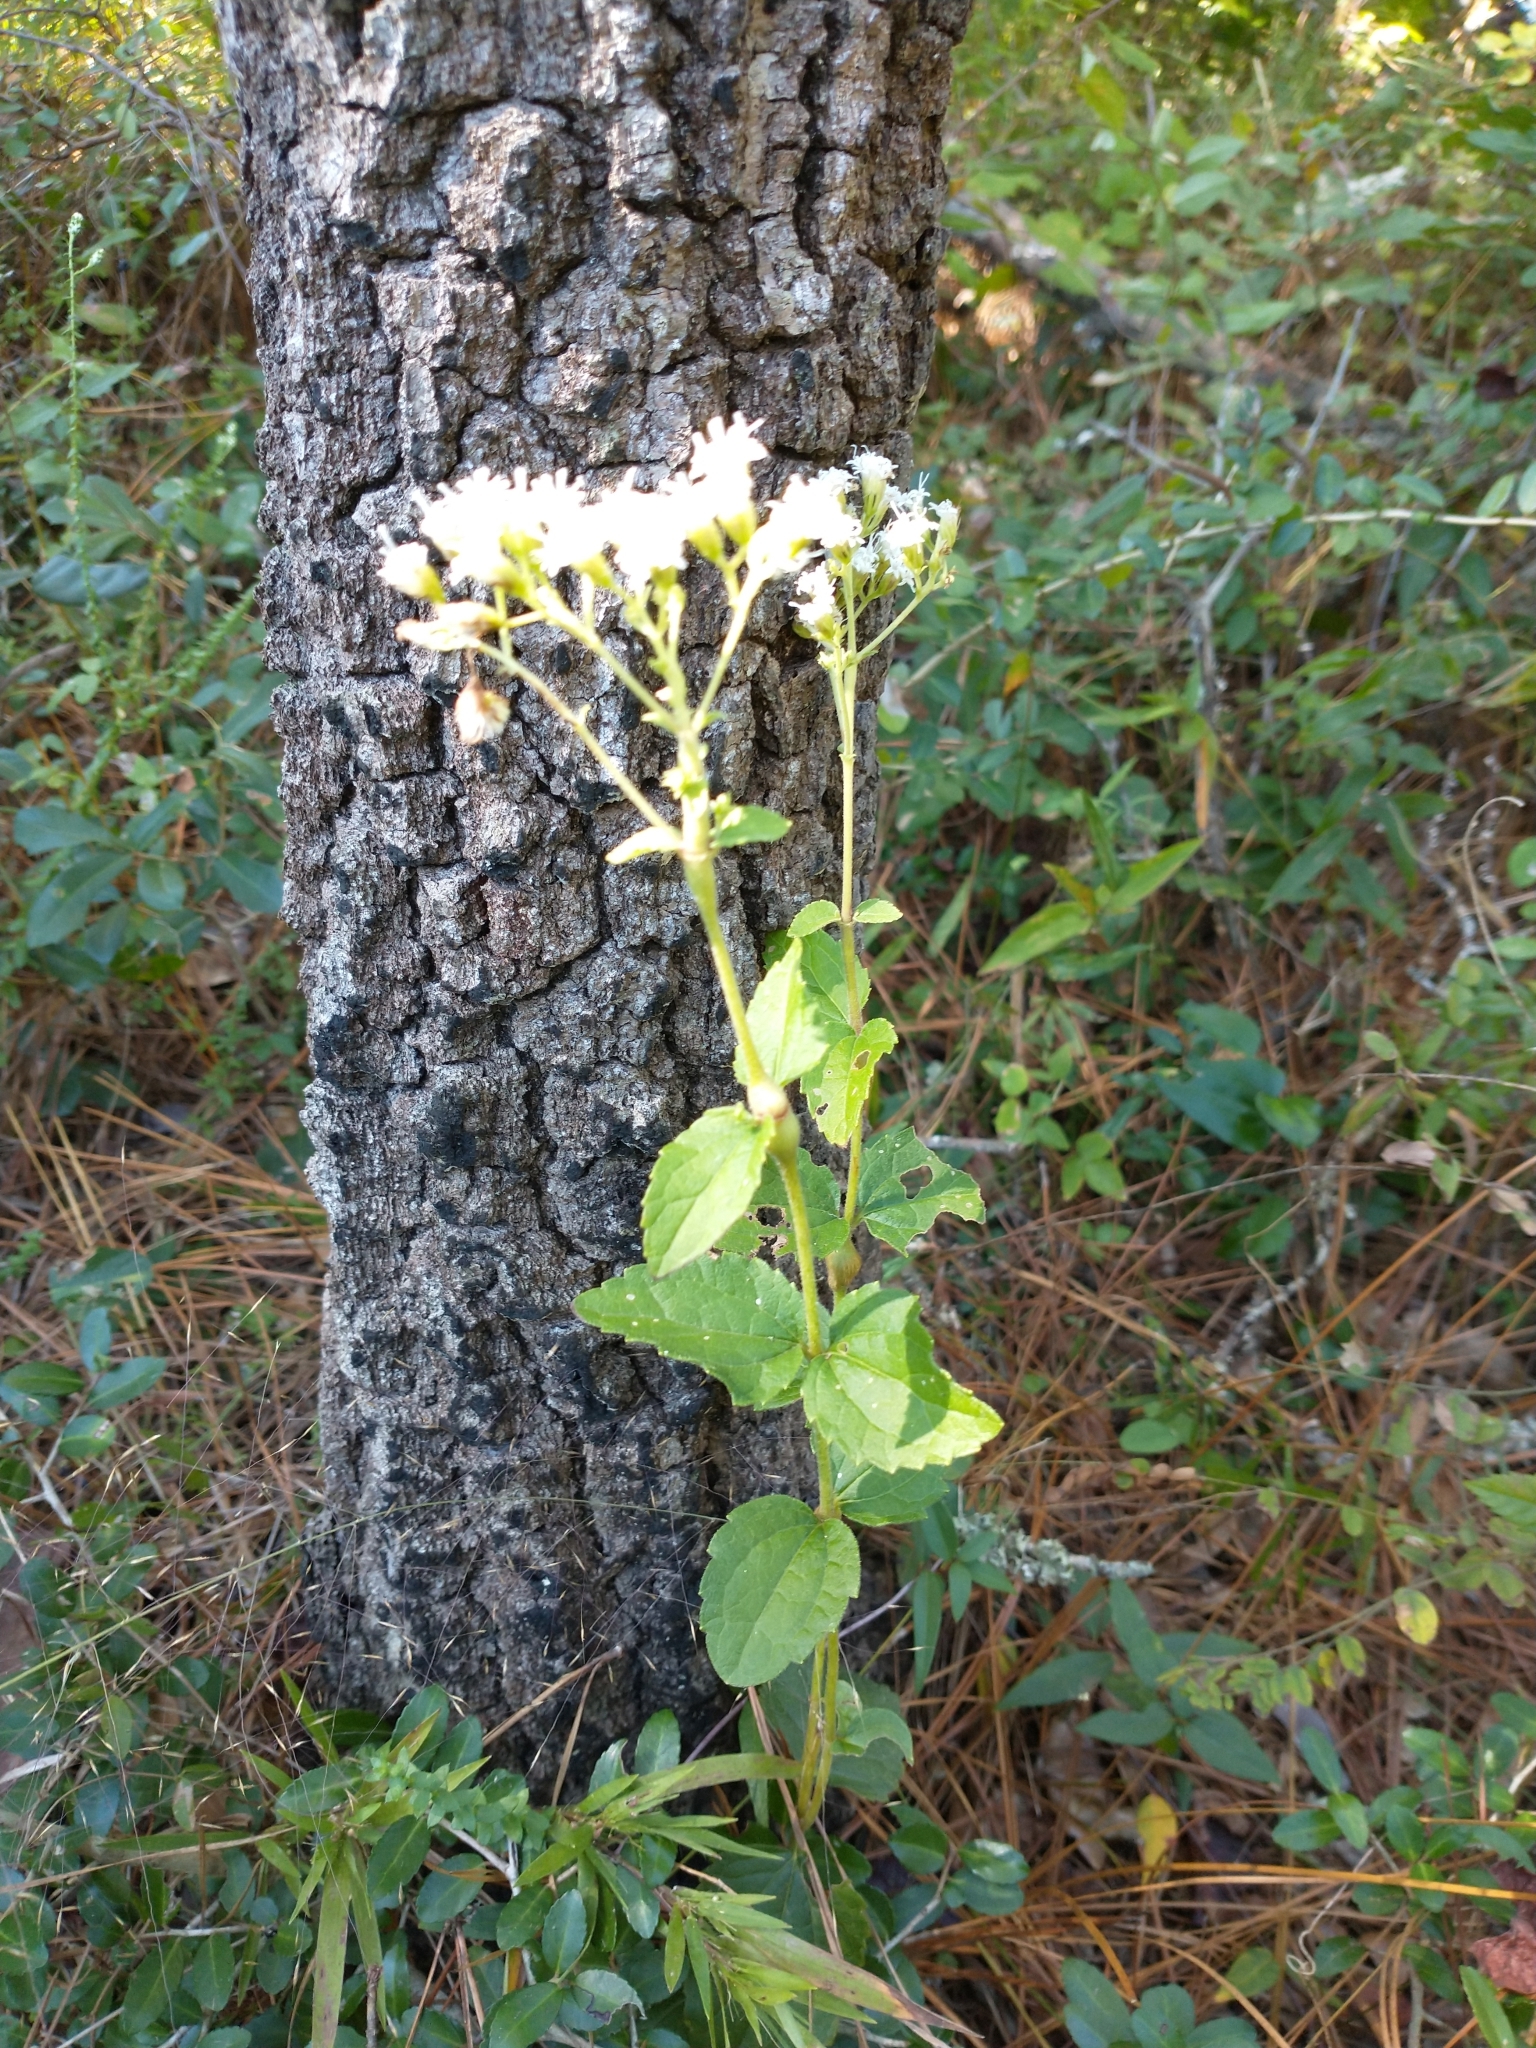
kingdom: Plantae
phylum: Tracheophyta
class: Magnoliopsida
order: Asterales
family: Asteraceae
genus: Ageratina
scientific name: Ageratina aromatica
